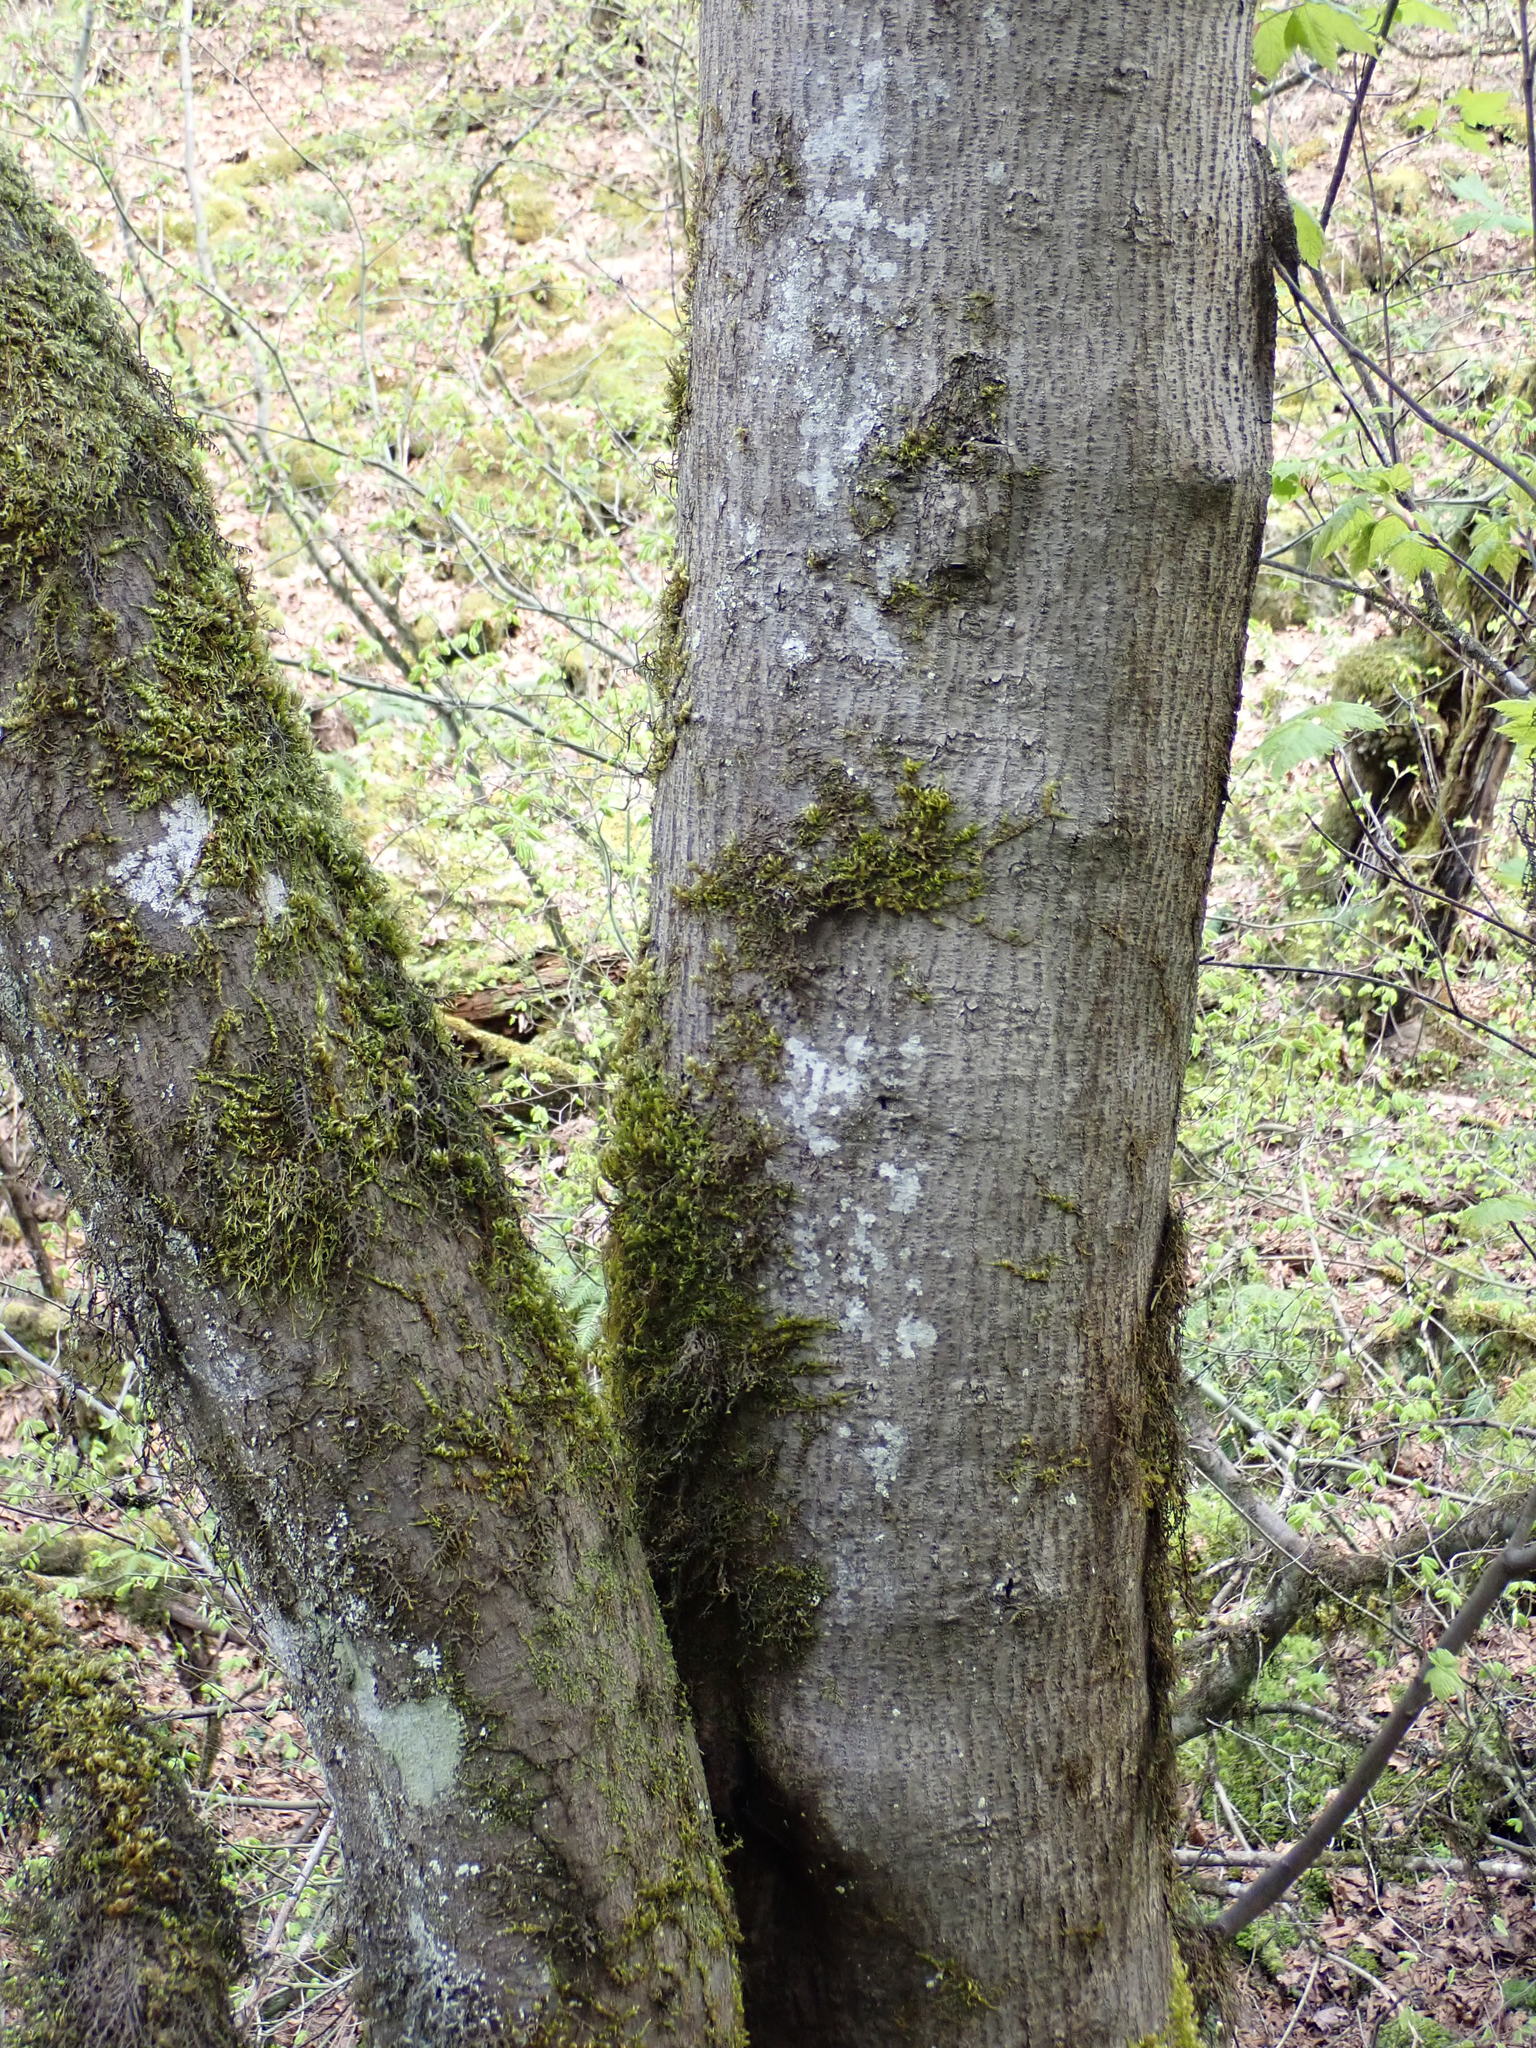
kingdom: Plantae
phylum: Tracheophyta
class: Magnoliopsida
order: Sapindales
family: Sapindaceae
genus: Acer
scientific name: Acer glabrum
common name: Rocky mountain maple
